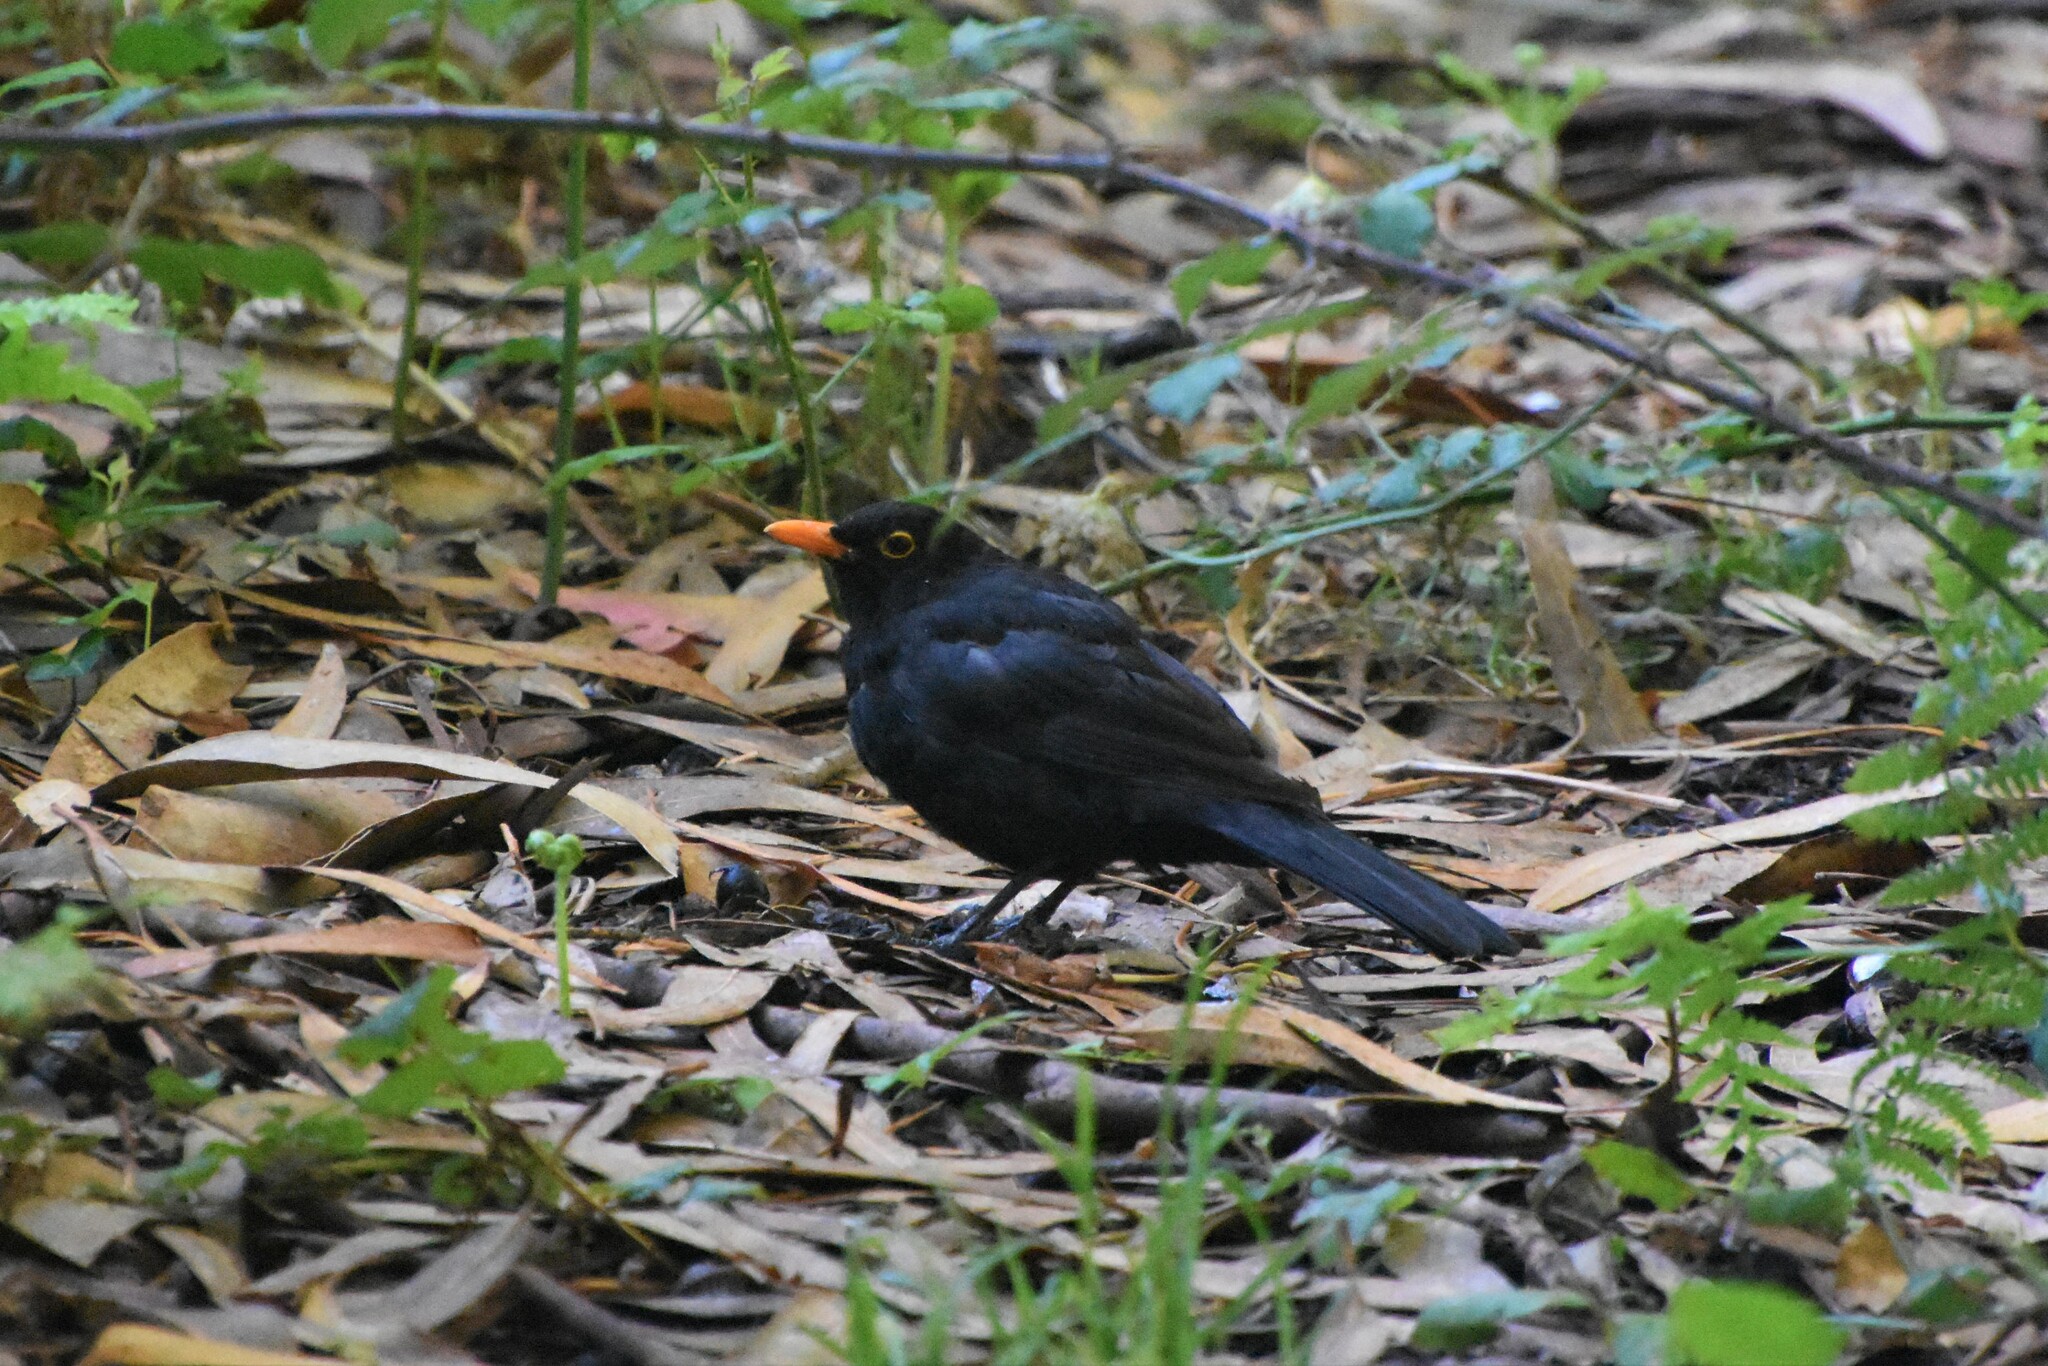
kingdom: Animalia
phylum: Chordata
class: Aves
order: Passeriformes
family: Turdidae
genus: Turdus
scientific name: Turdus merula
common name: Common blackbird
